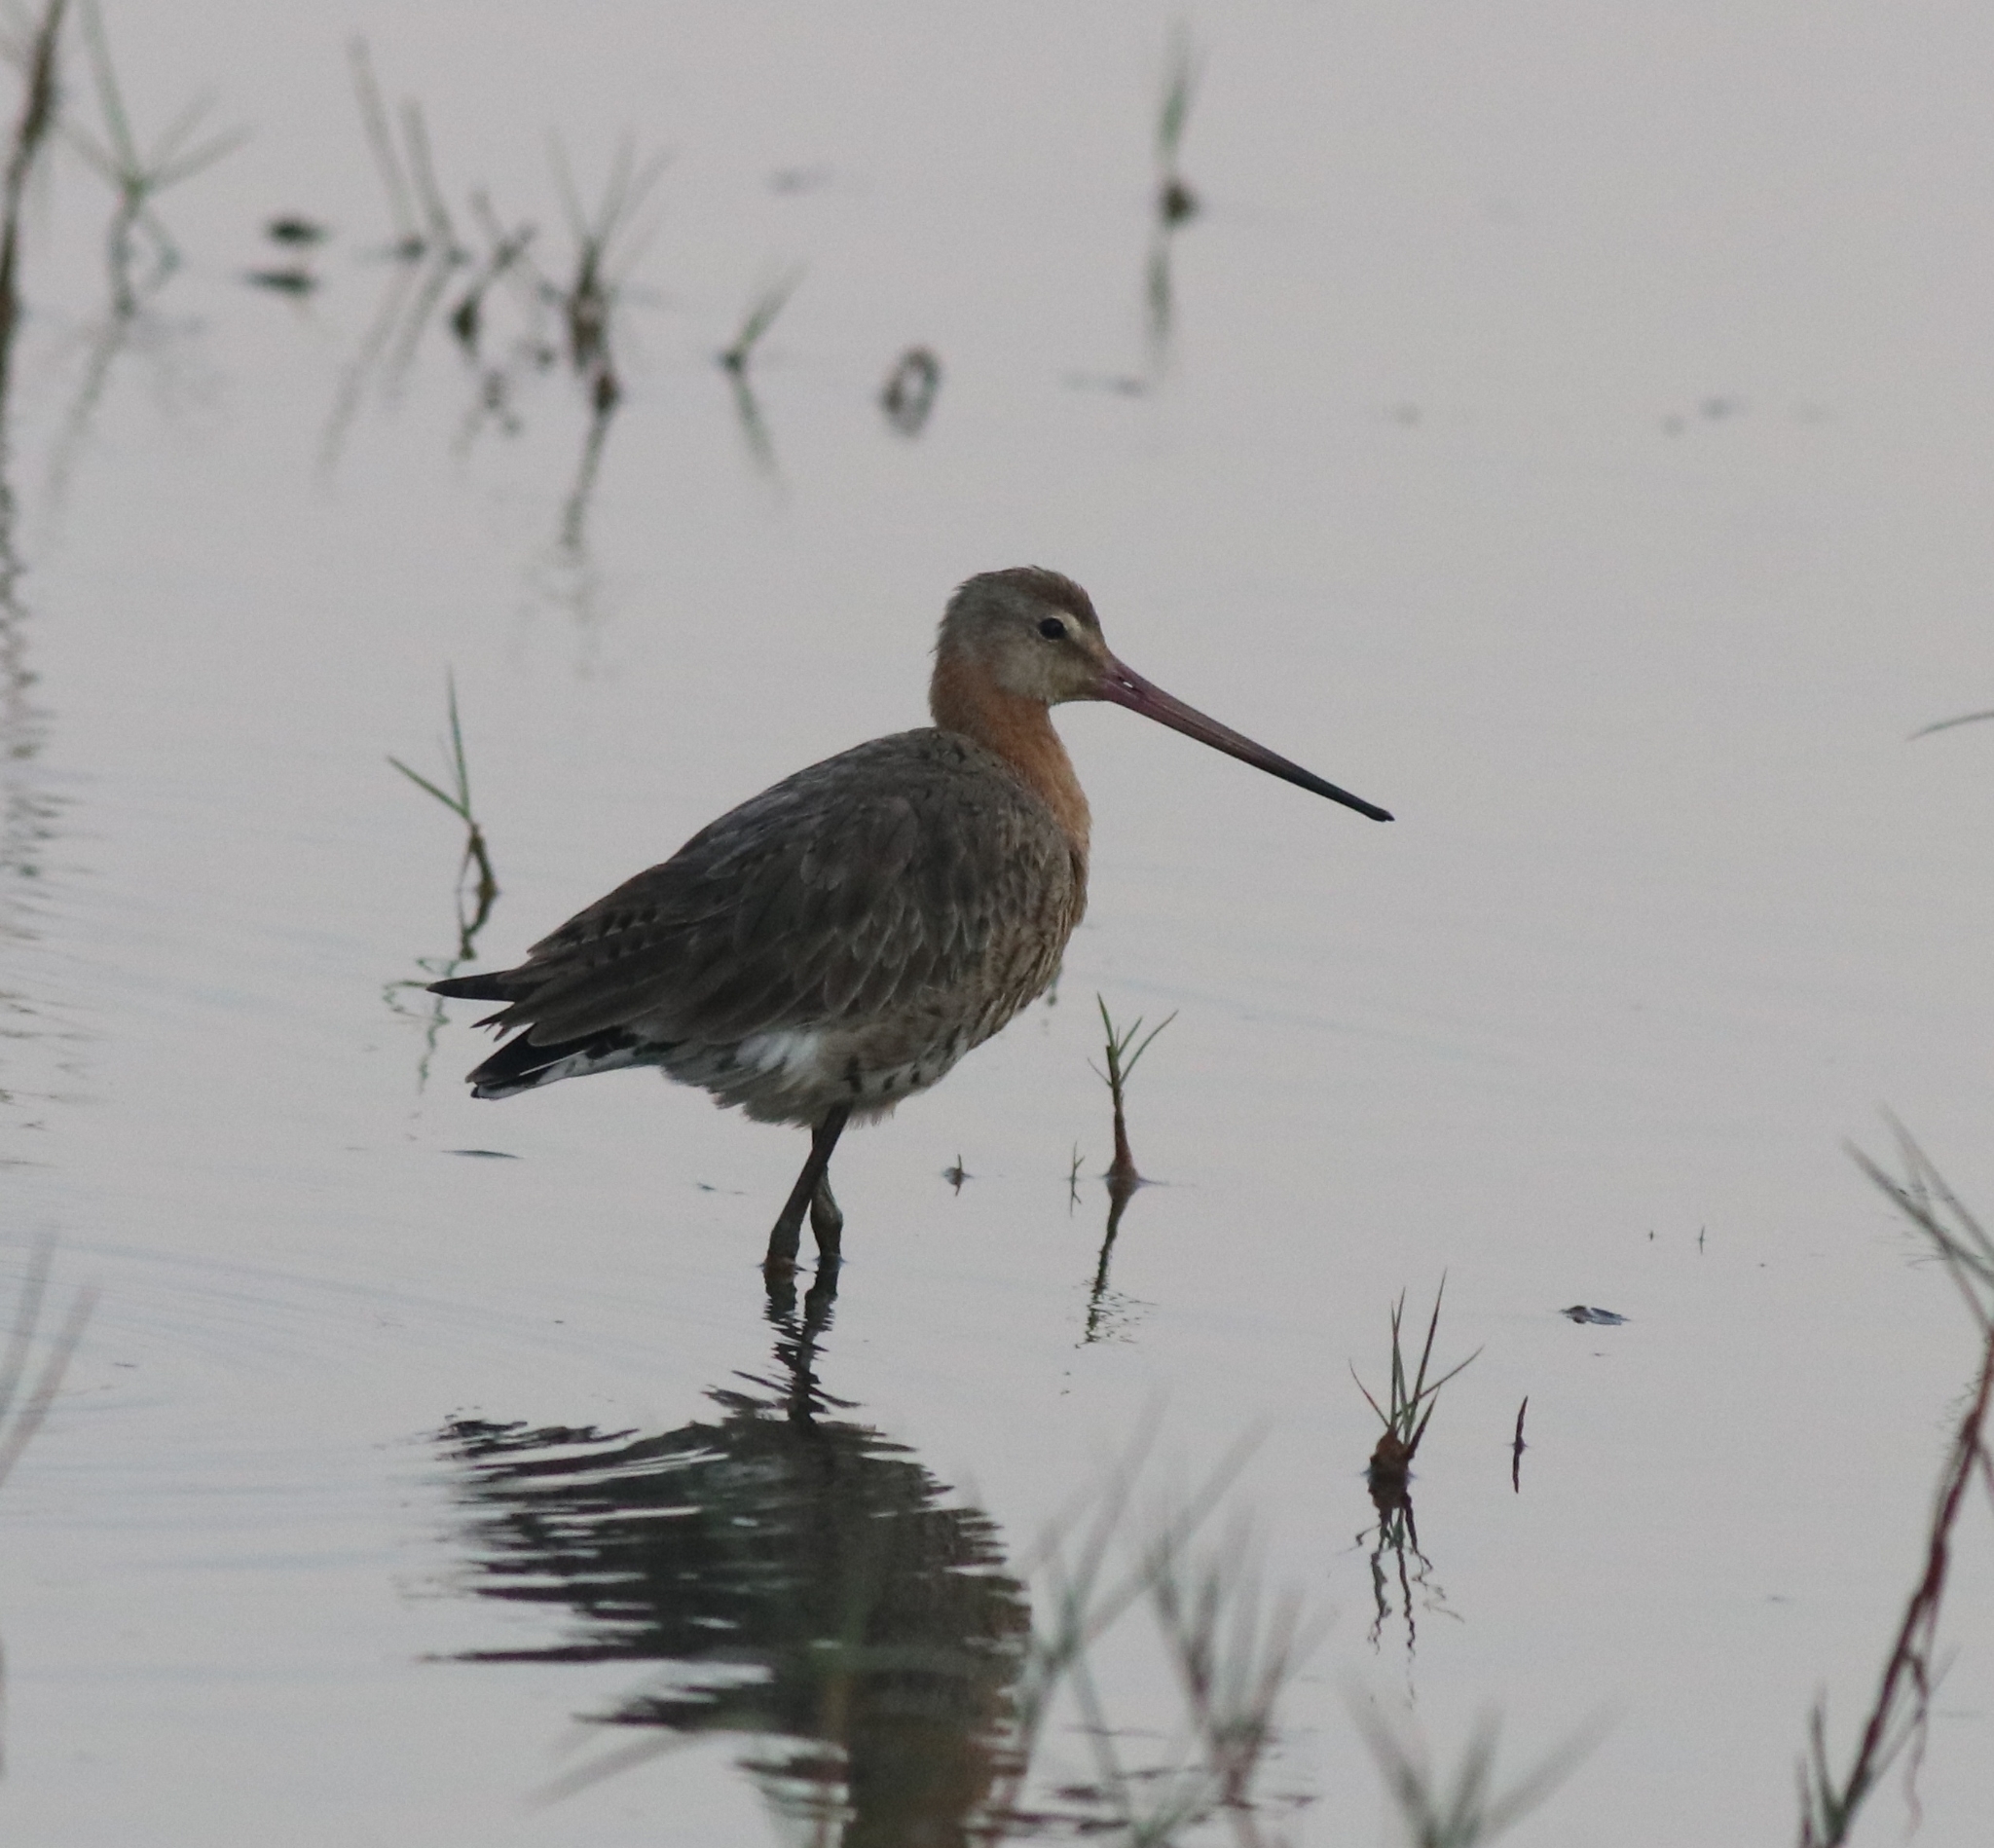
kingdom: Animalia
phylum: Chordata
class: Aves
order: Charadriiformes
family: Scolopacidae
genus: Limosa
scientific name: Limosa limosa
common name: Black-tailed godwit
